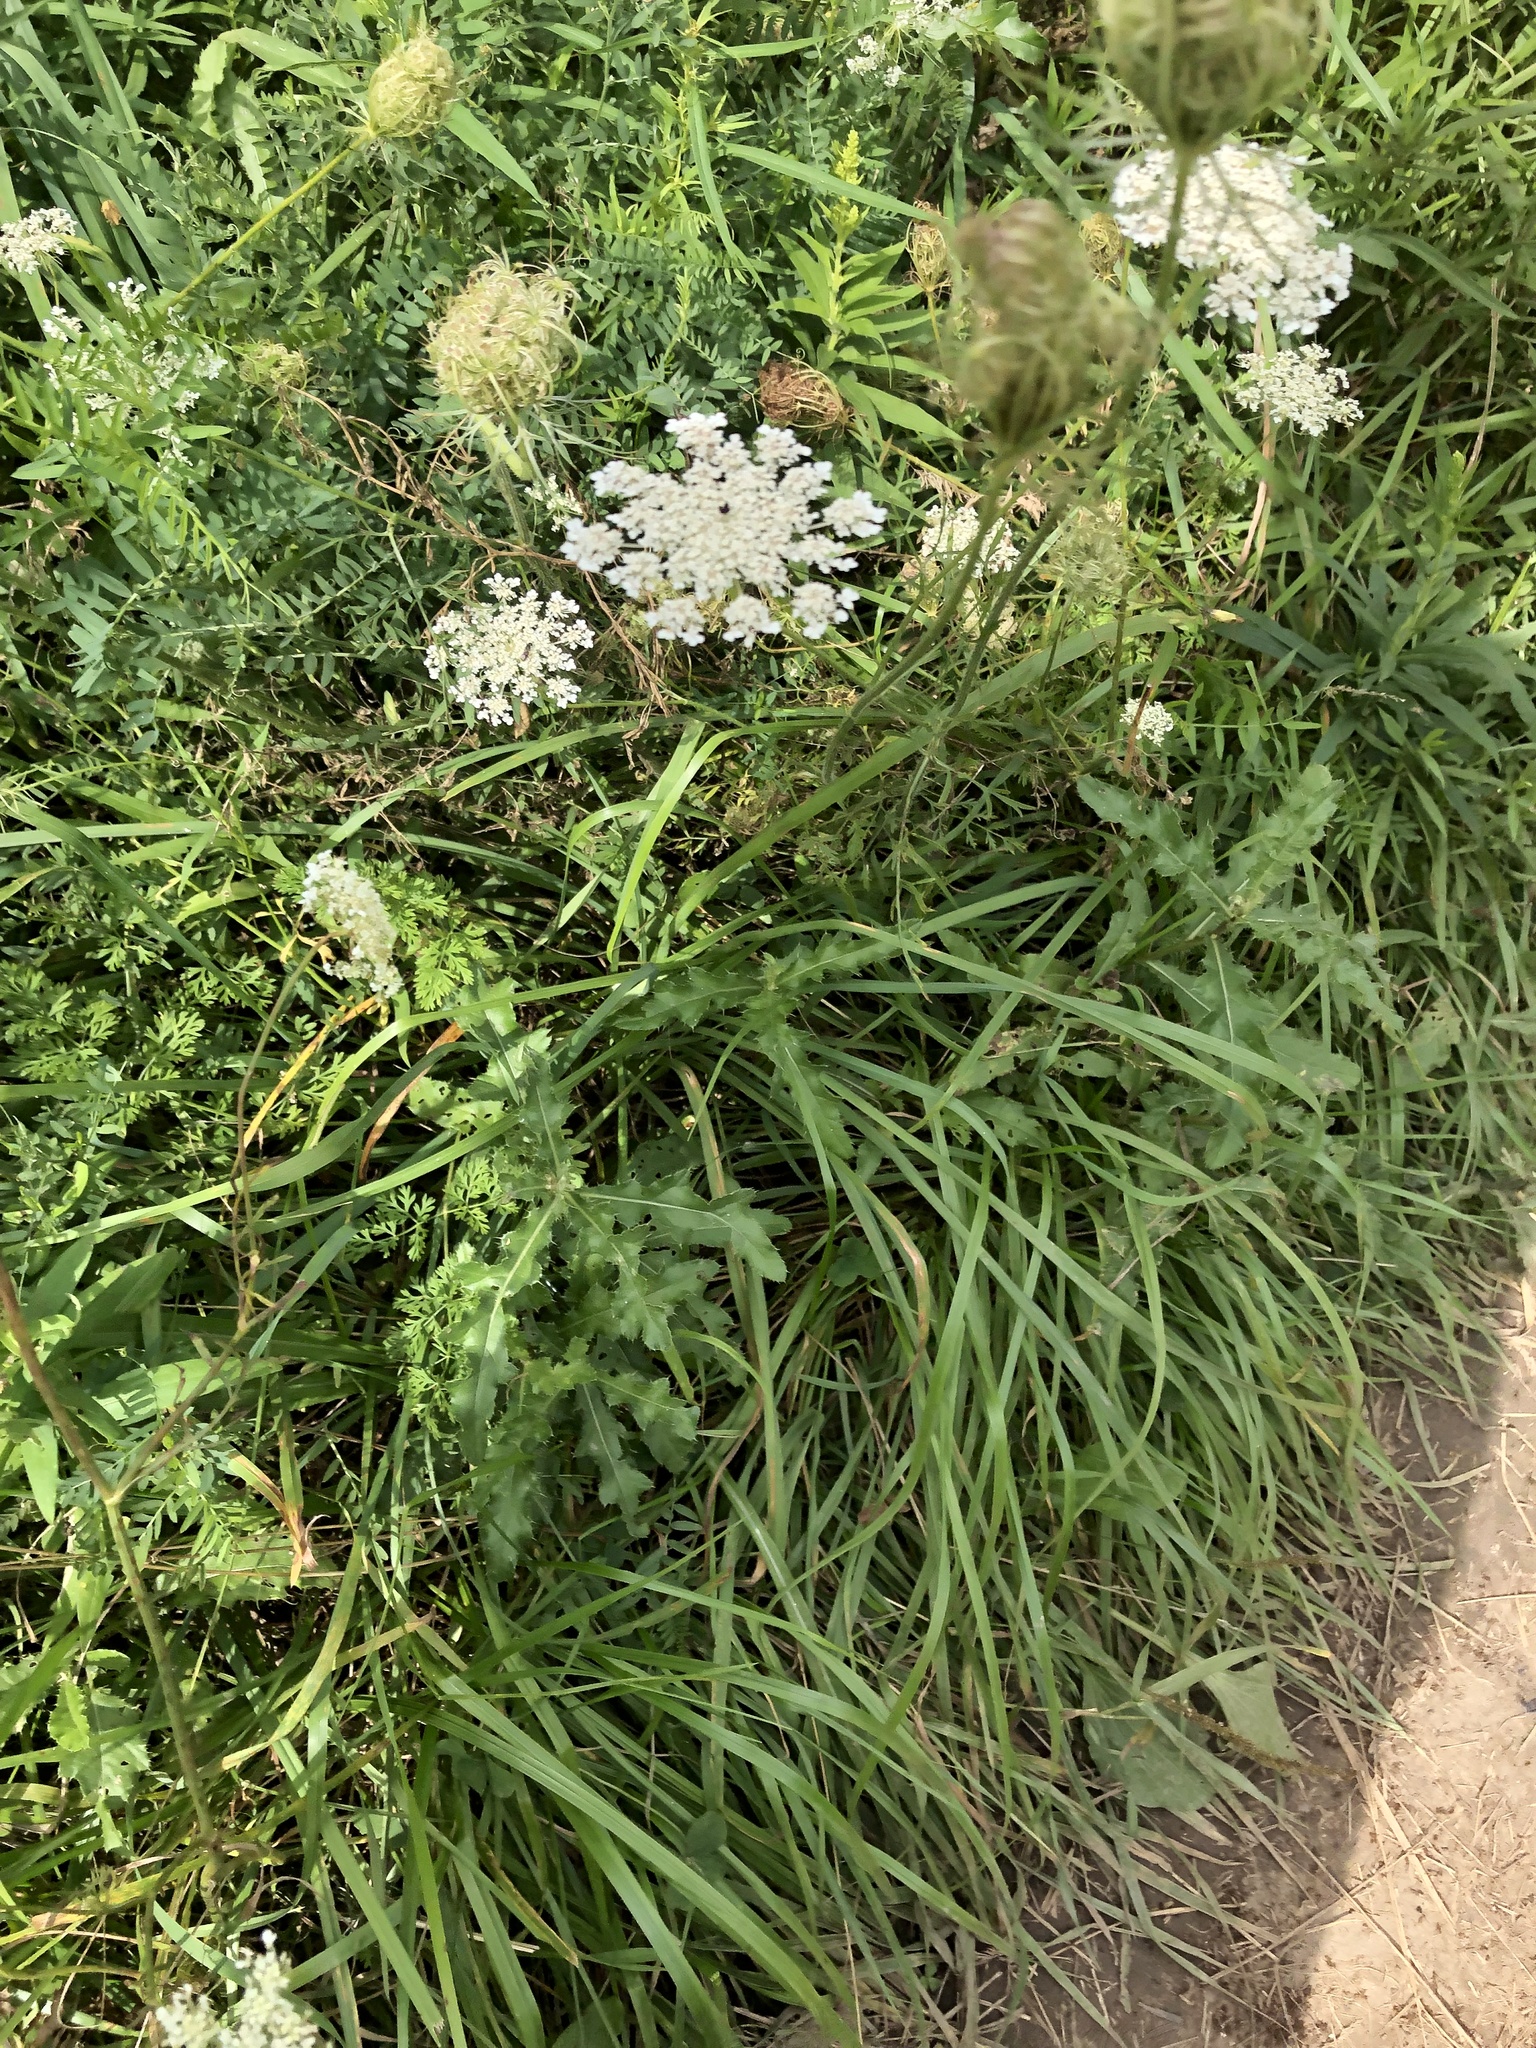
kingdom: Plantae
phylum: Tracheophyta
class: Magnoliopsida
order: Apiales
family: Apiaceae
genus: Daucus
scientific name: Daucus carota
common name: Wild carrot
